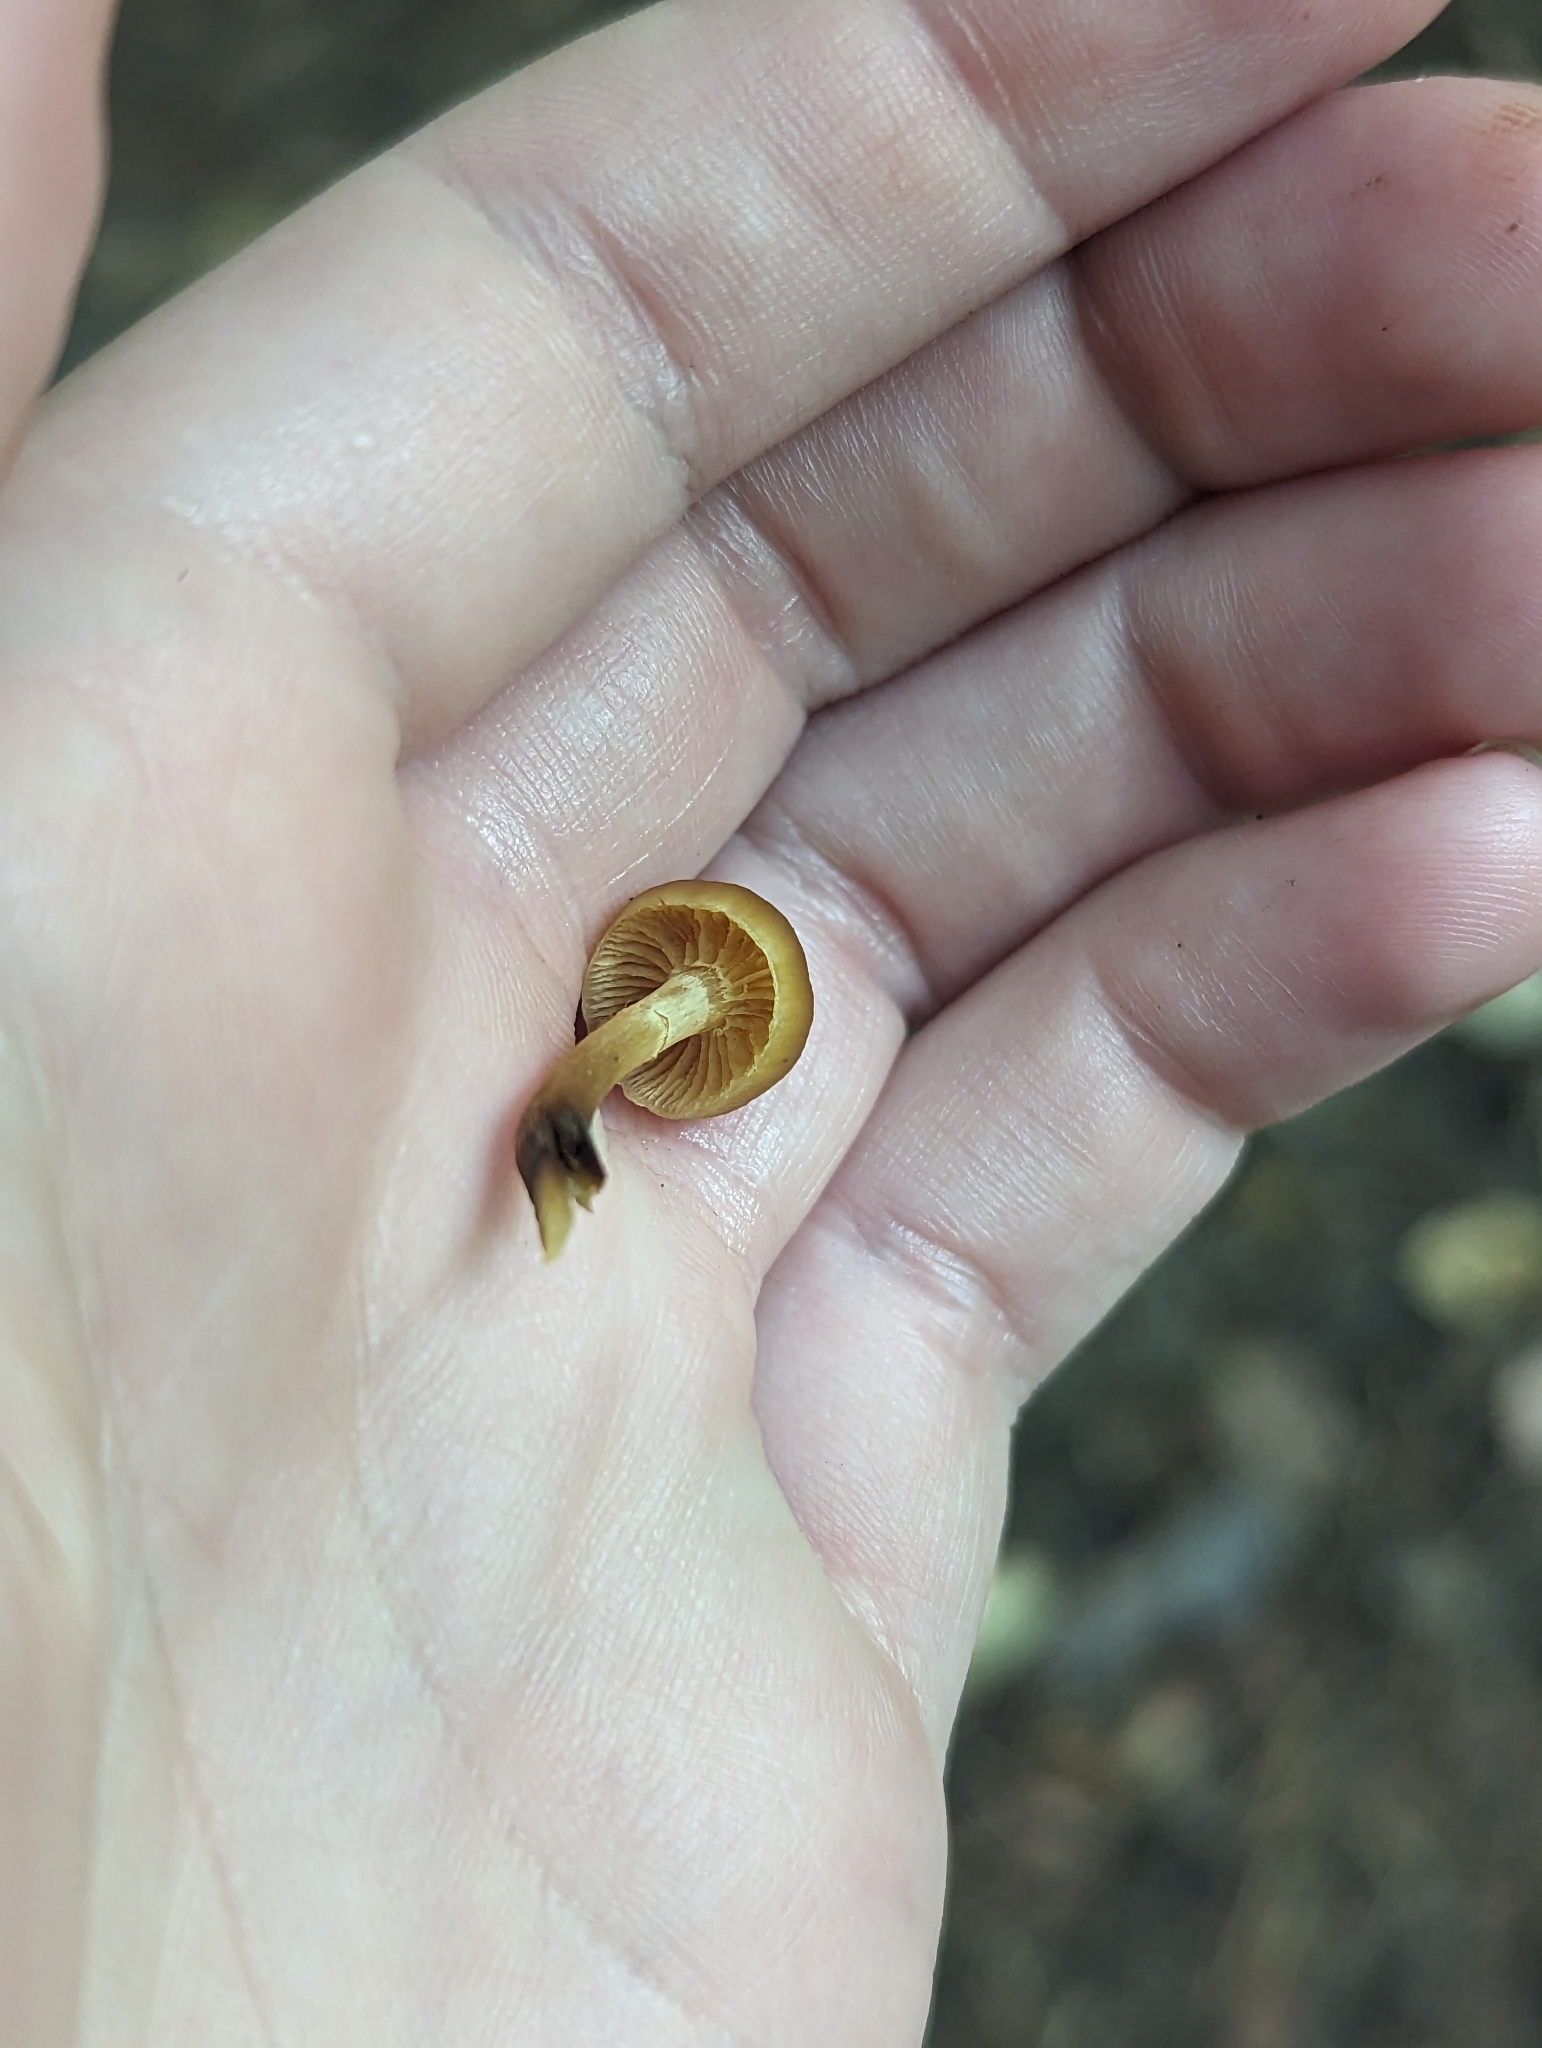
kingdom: Fungi
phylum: Basidiomycota
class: Agaricomycetes
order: Agaricales
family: Hymenogastraceae
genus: Galerina
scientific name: Galerina marginata
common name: Funeral bell
